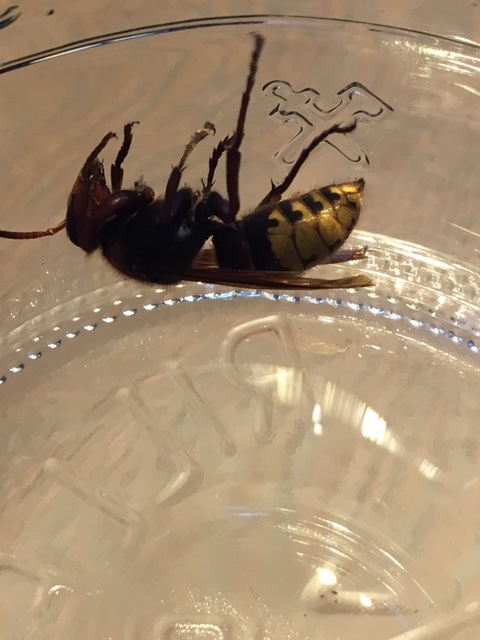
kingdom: Animalia
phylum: Arthropoda
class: Insecta
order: Hymenoptera
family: Vespidae
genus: Vespa
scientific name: Vespa crabro
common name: Hornet
